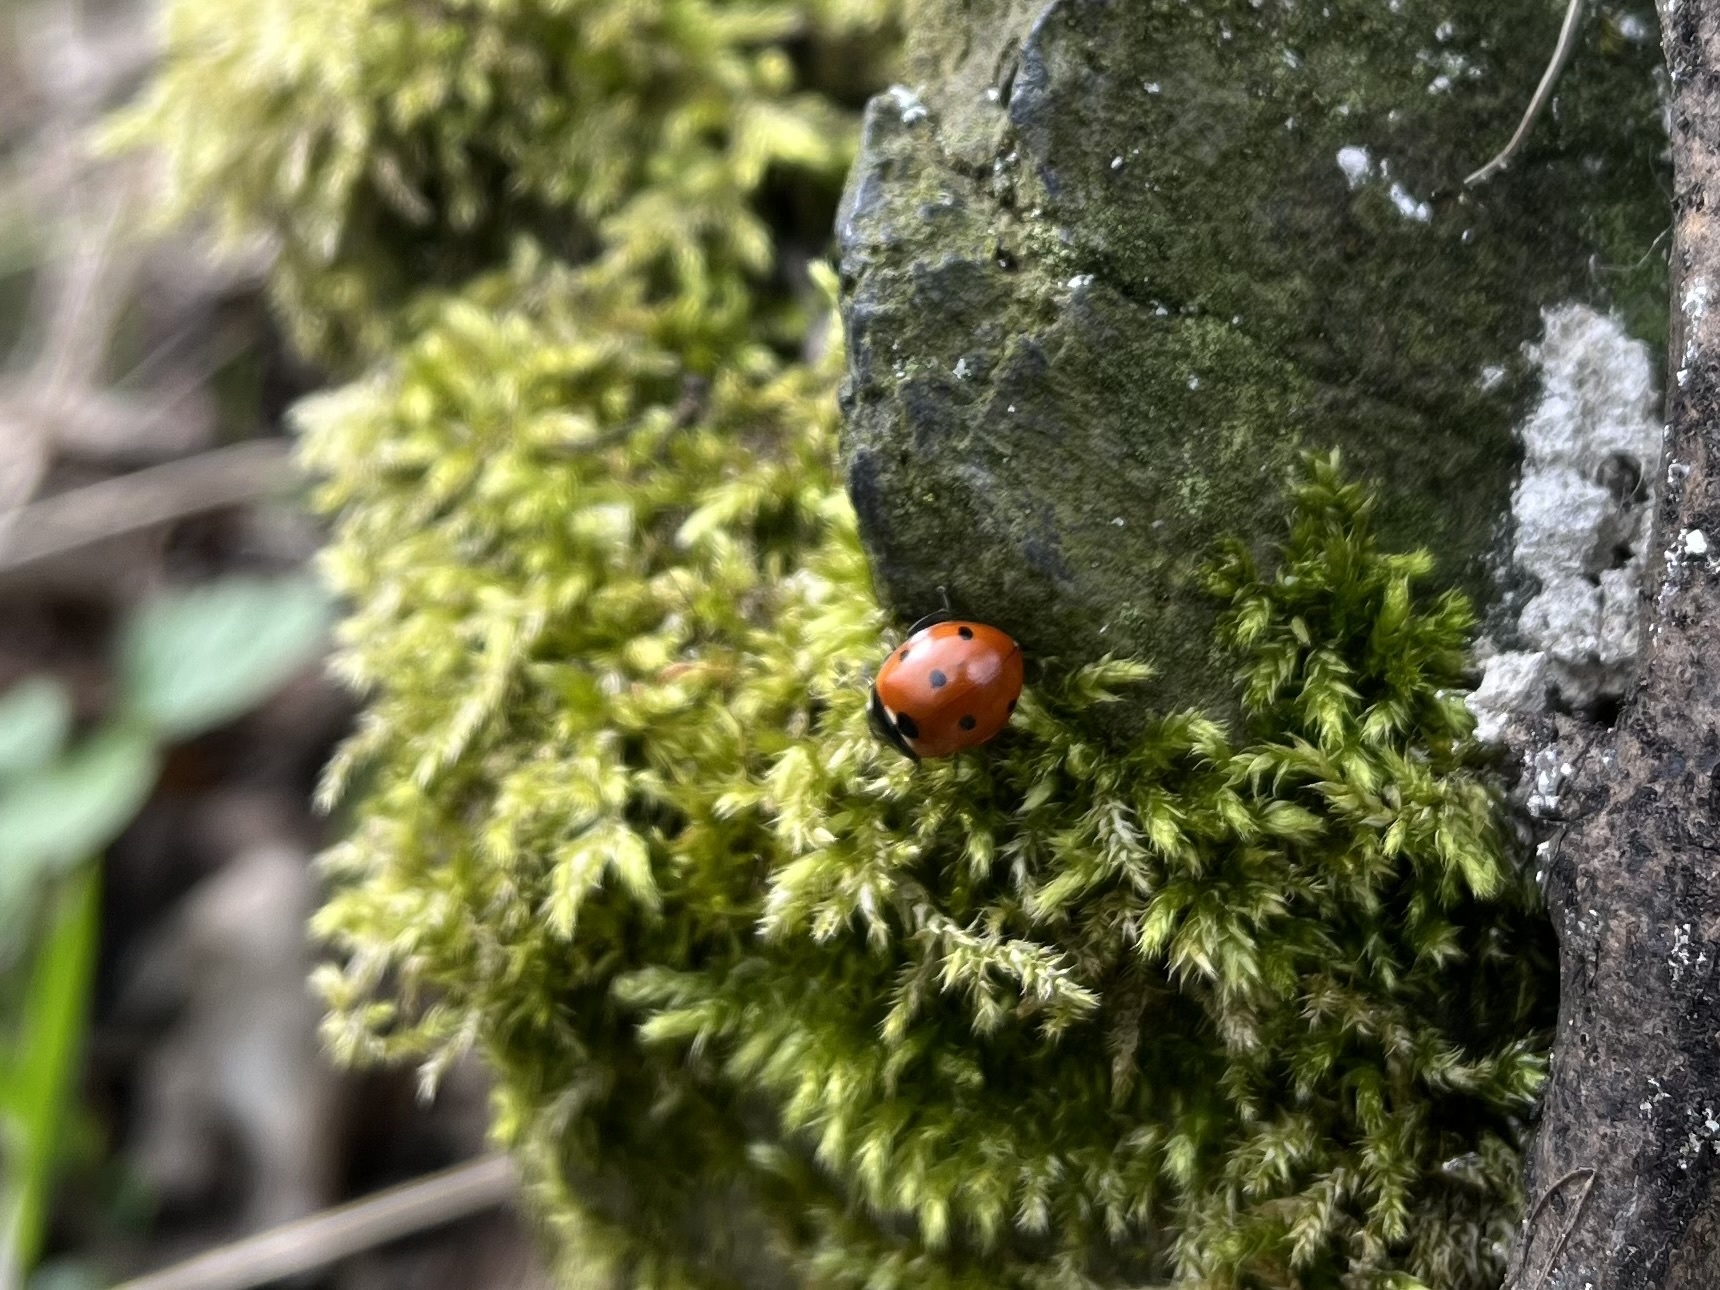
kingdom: Animalia
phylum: Arthropoda
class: Insecta
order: Coleoptera
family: Coccinellidae
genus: Coccinella
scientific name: Coccinella septempunctata
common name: Sevenspotted lady beetle
